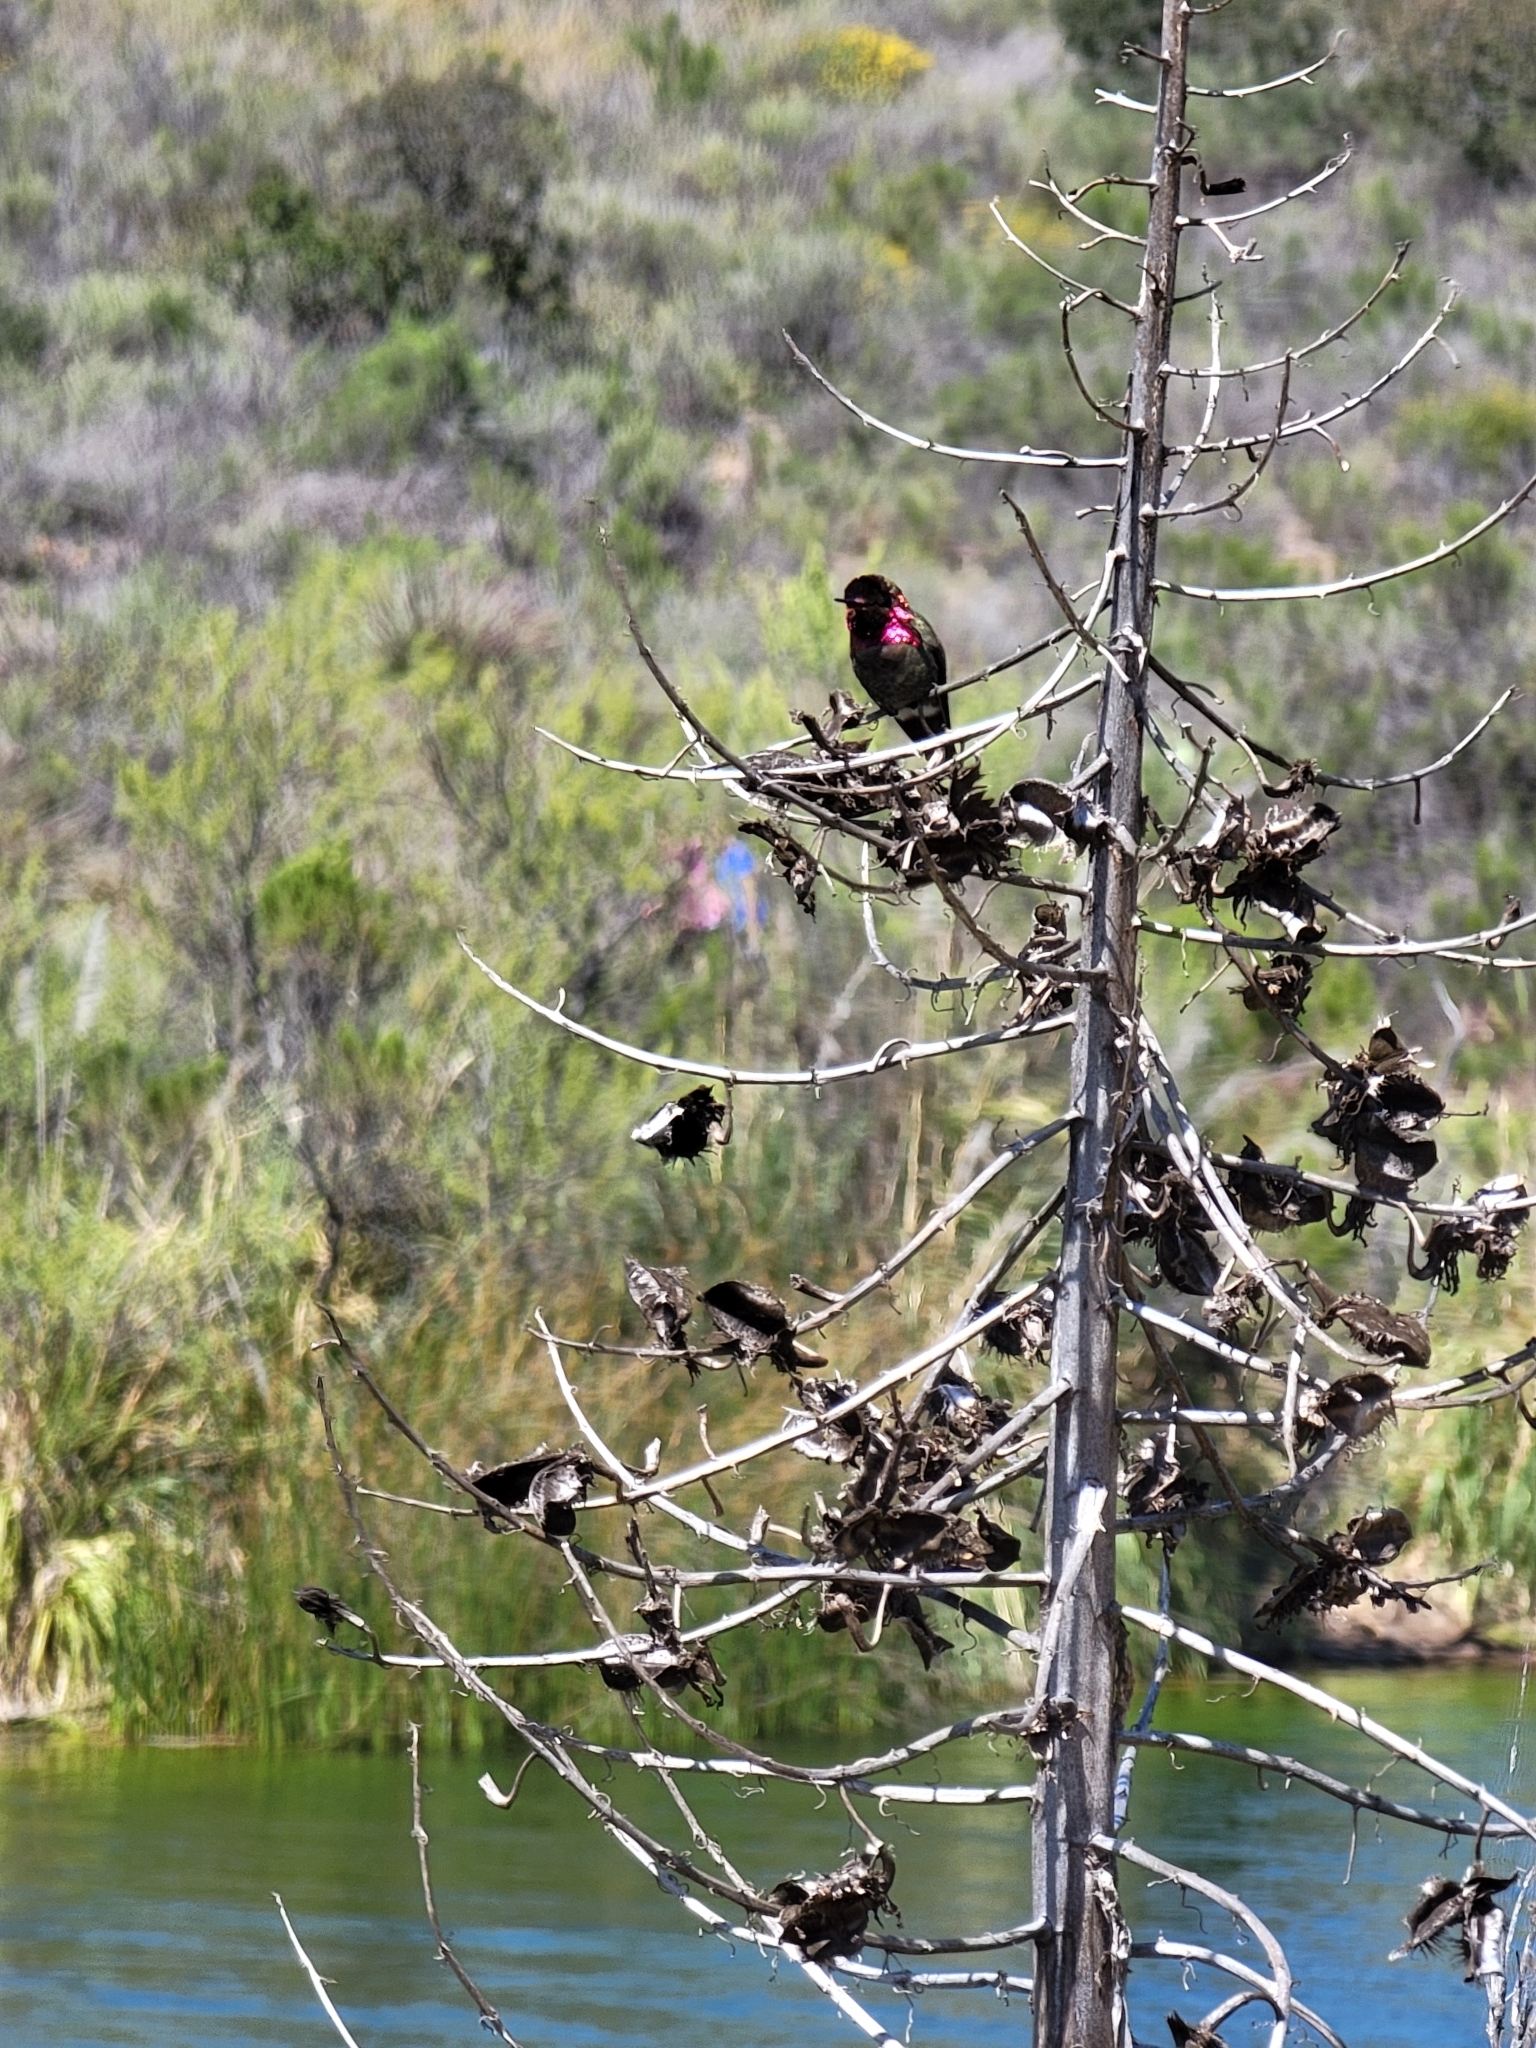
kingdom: Animalia
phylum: Chordata
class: Aves
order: Apodiformes
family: Trochilidae
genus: Calypte
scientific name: Calypte anna
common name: Anna's hummingbird
